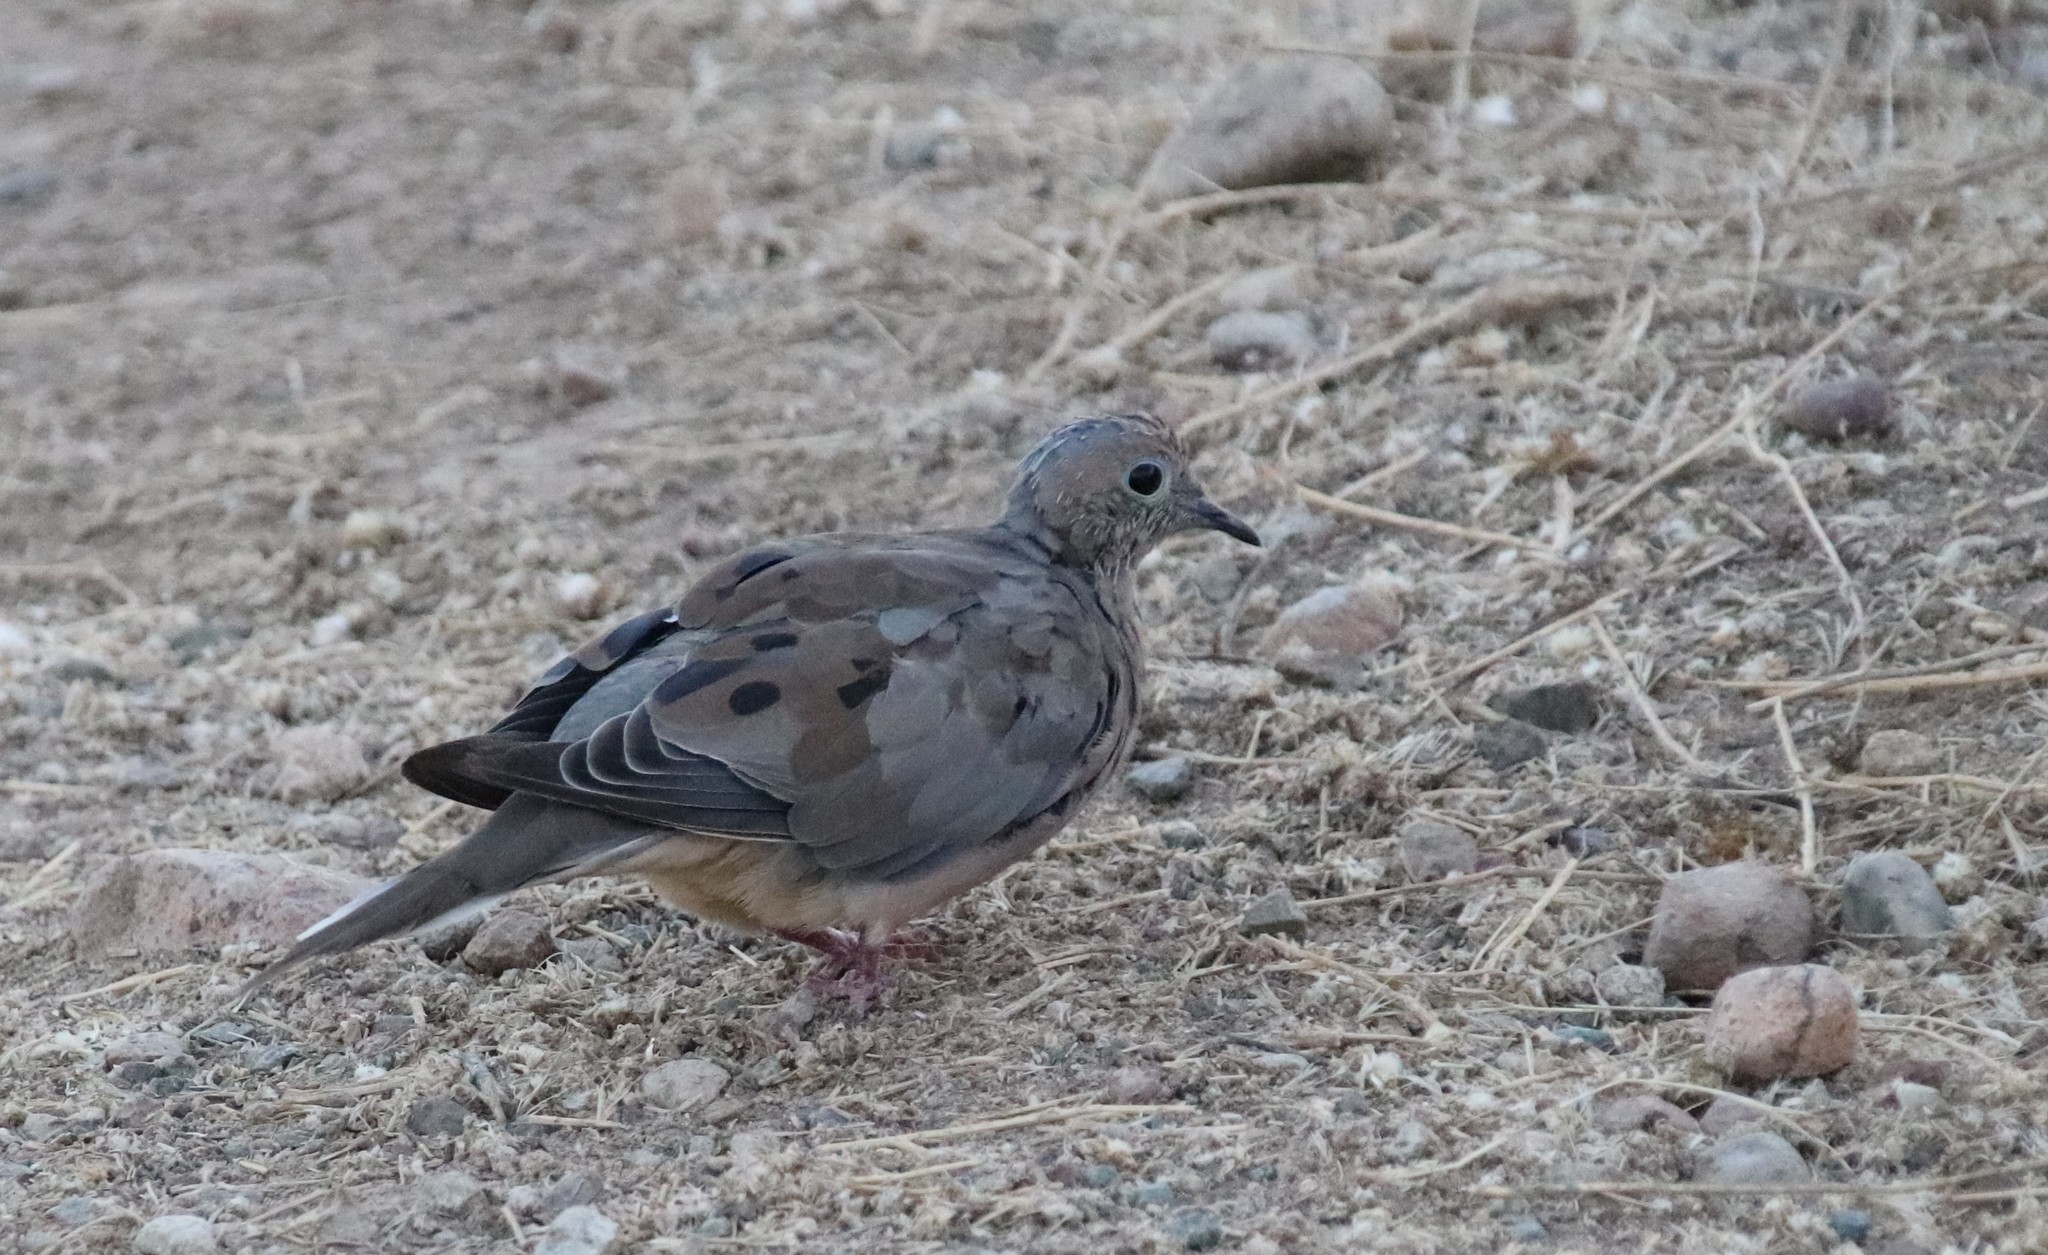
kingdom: Animalia
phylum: Chordata
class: Aves
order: Columbiformes
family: Columbidae
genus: Zenaida
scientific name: Zenaida macroura
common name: Mourning dove
